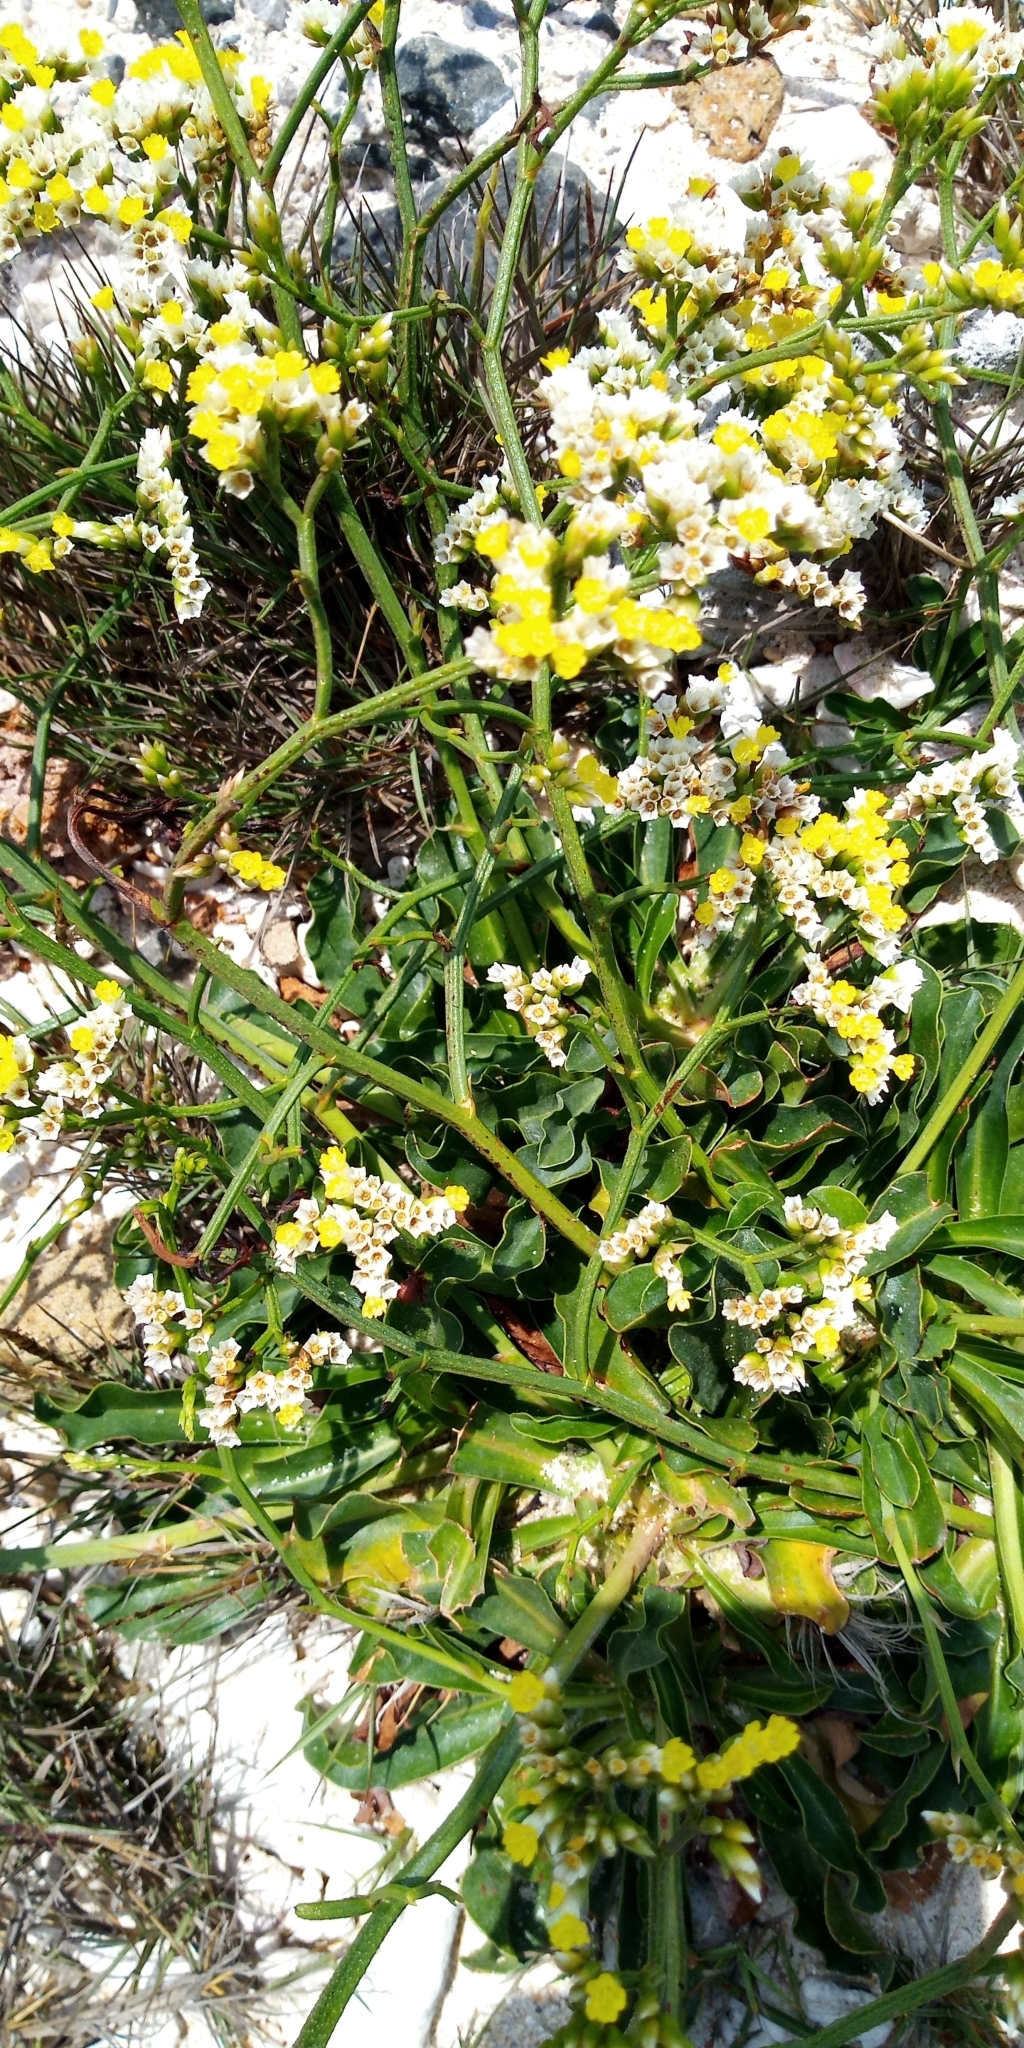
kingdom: Plantae
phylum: Tracheophyta
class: Magnoliopsida
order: Caryophyllales
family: Plumbaginaceae
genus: Limonium
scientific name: Limonium sinense
